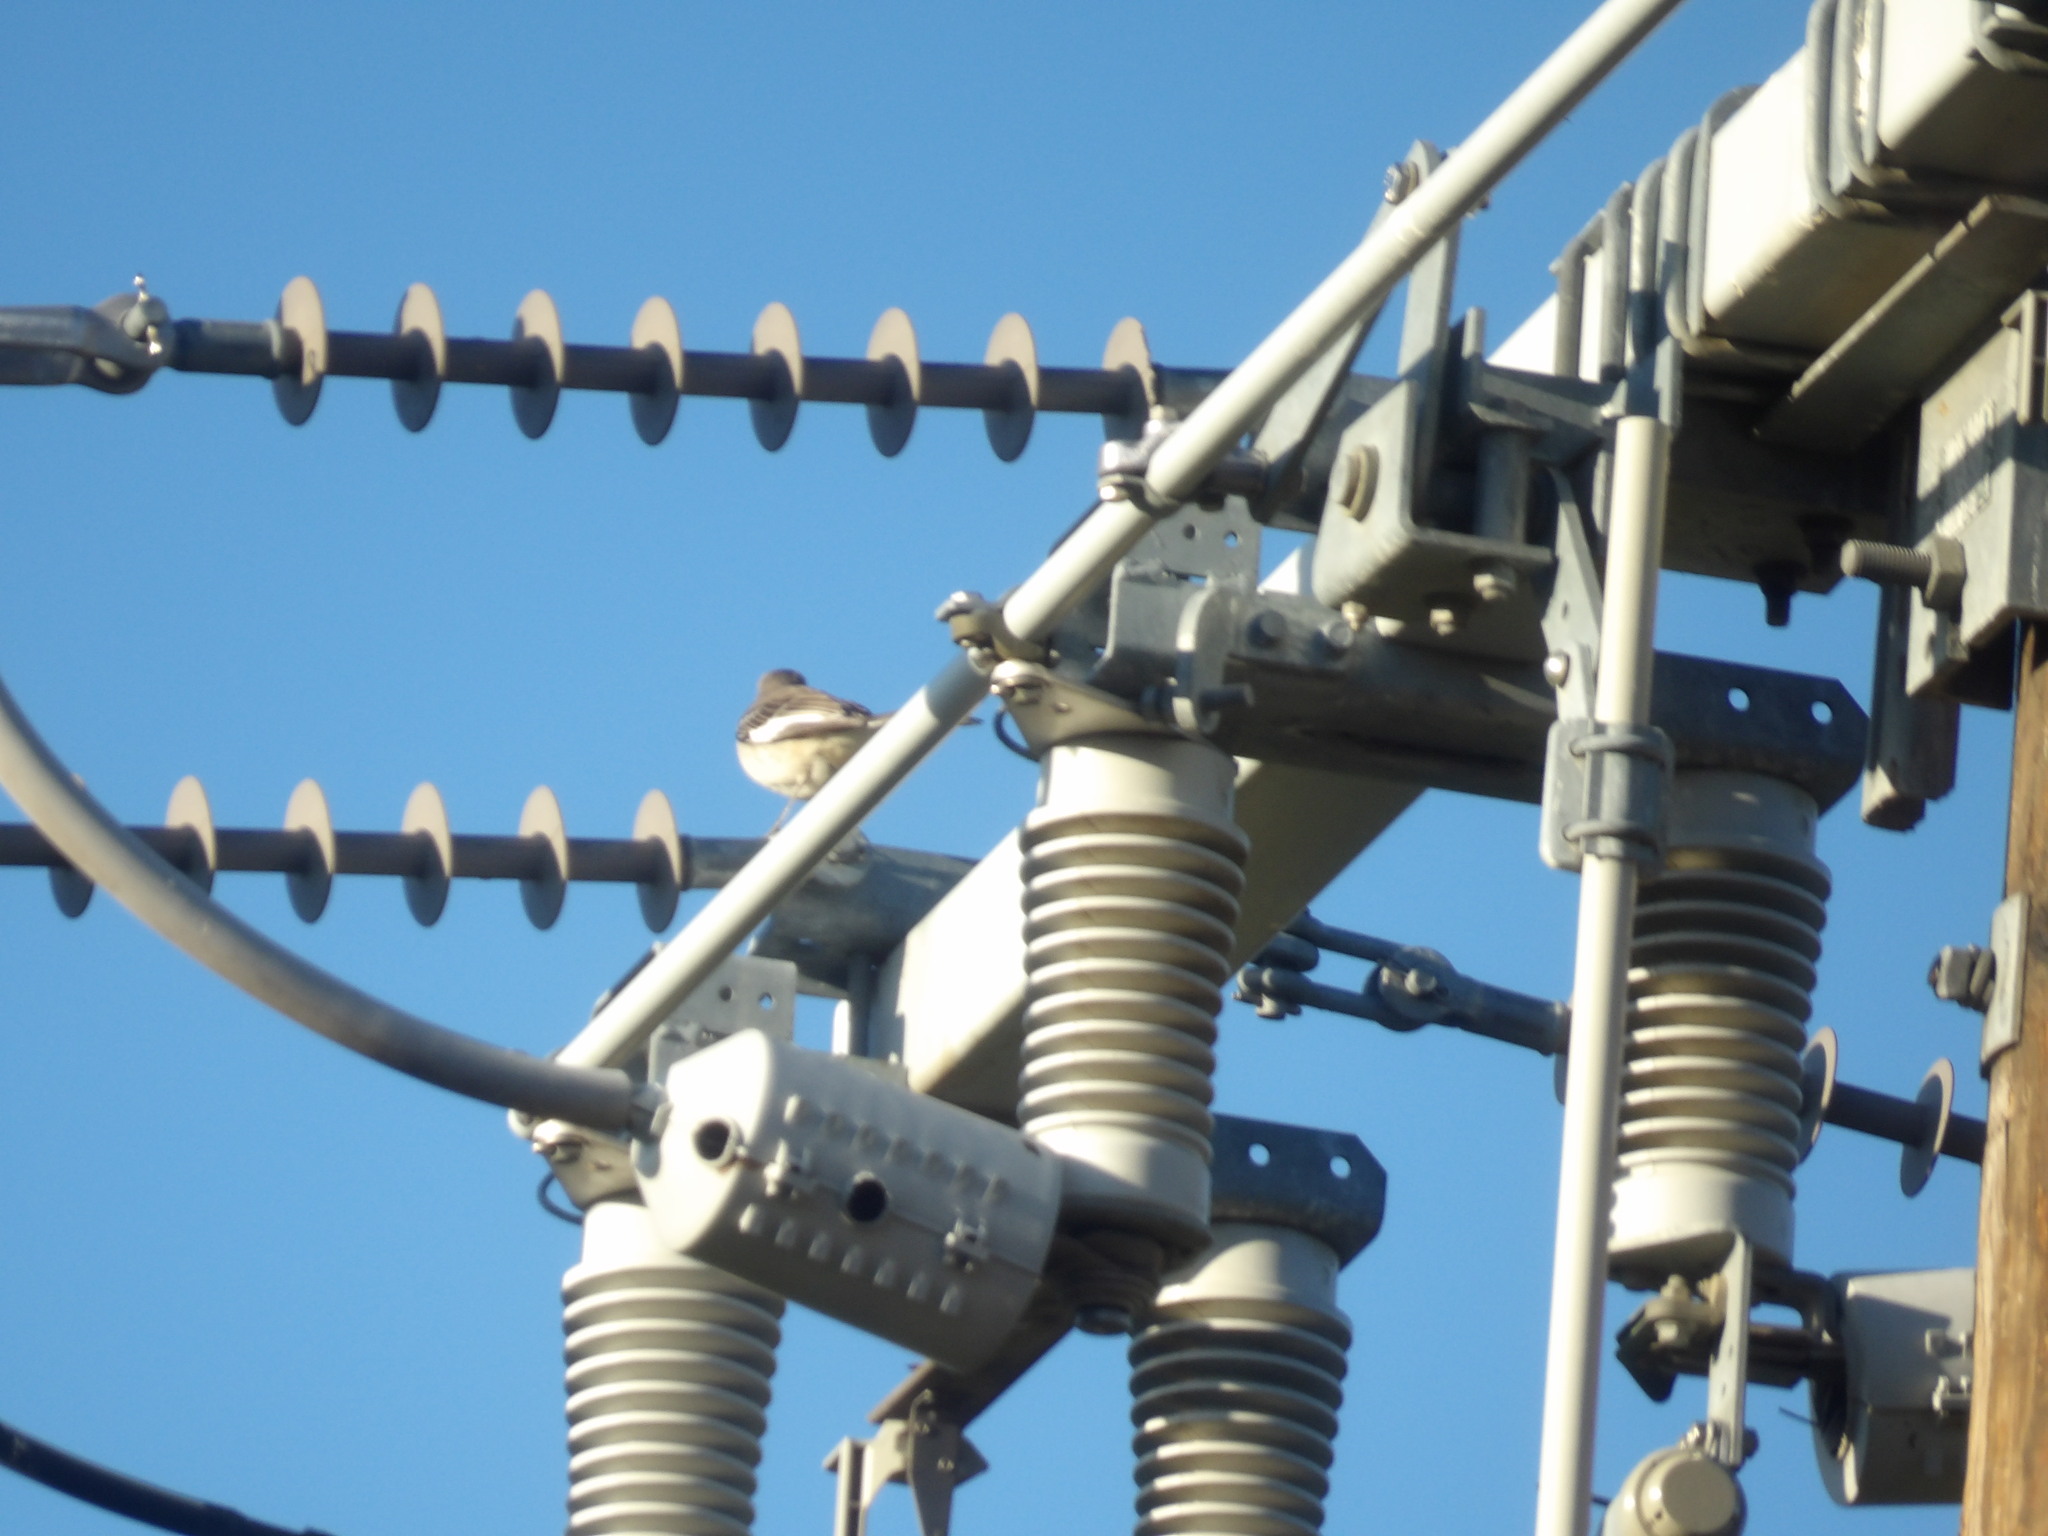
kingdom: Animalia
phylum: Chordata
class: Aves
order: Passeriformes
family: Mimidae
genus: Mimus
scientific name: Mimus polyglottos
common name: Northern mockingbird
